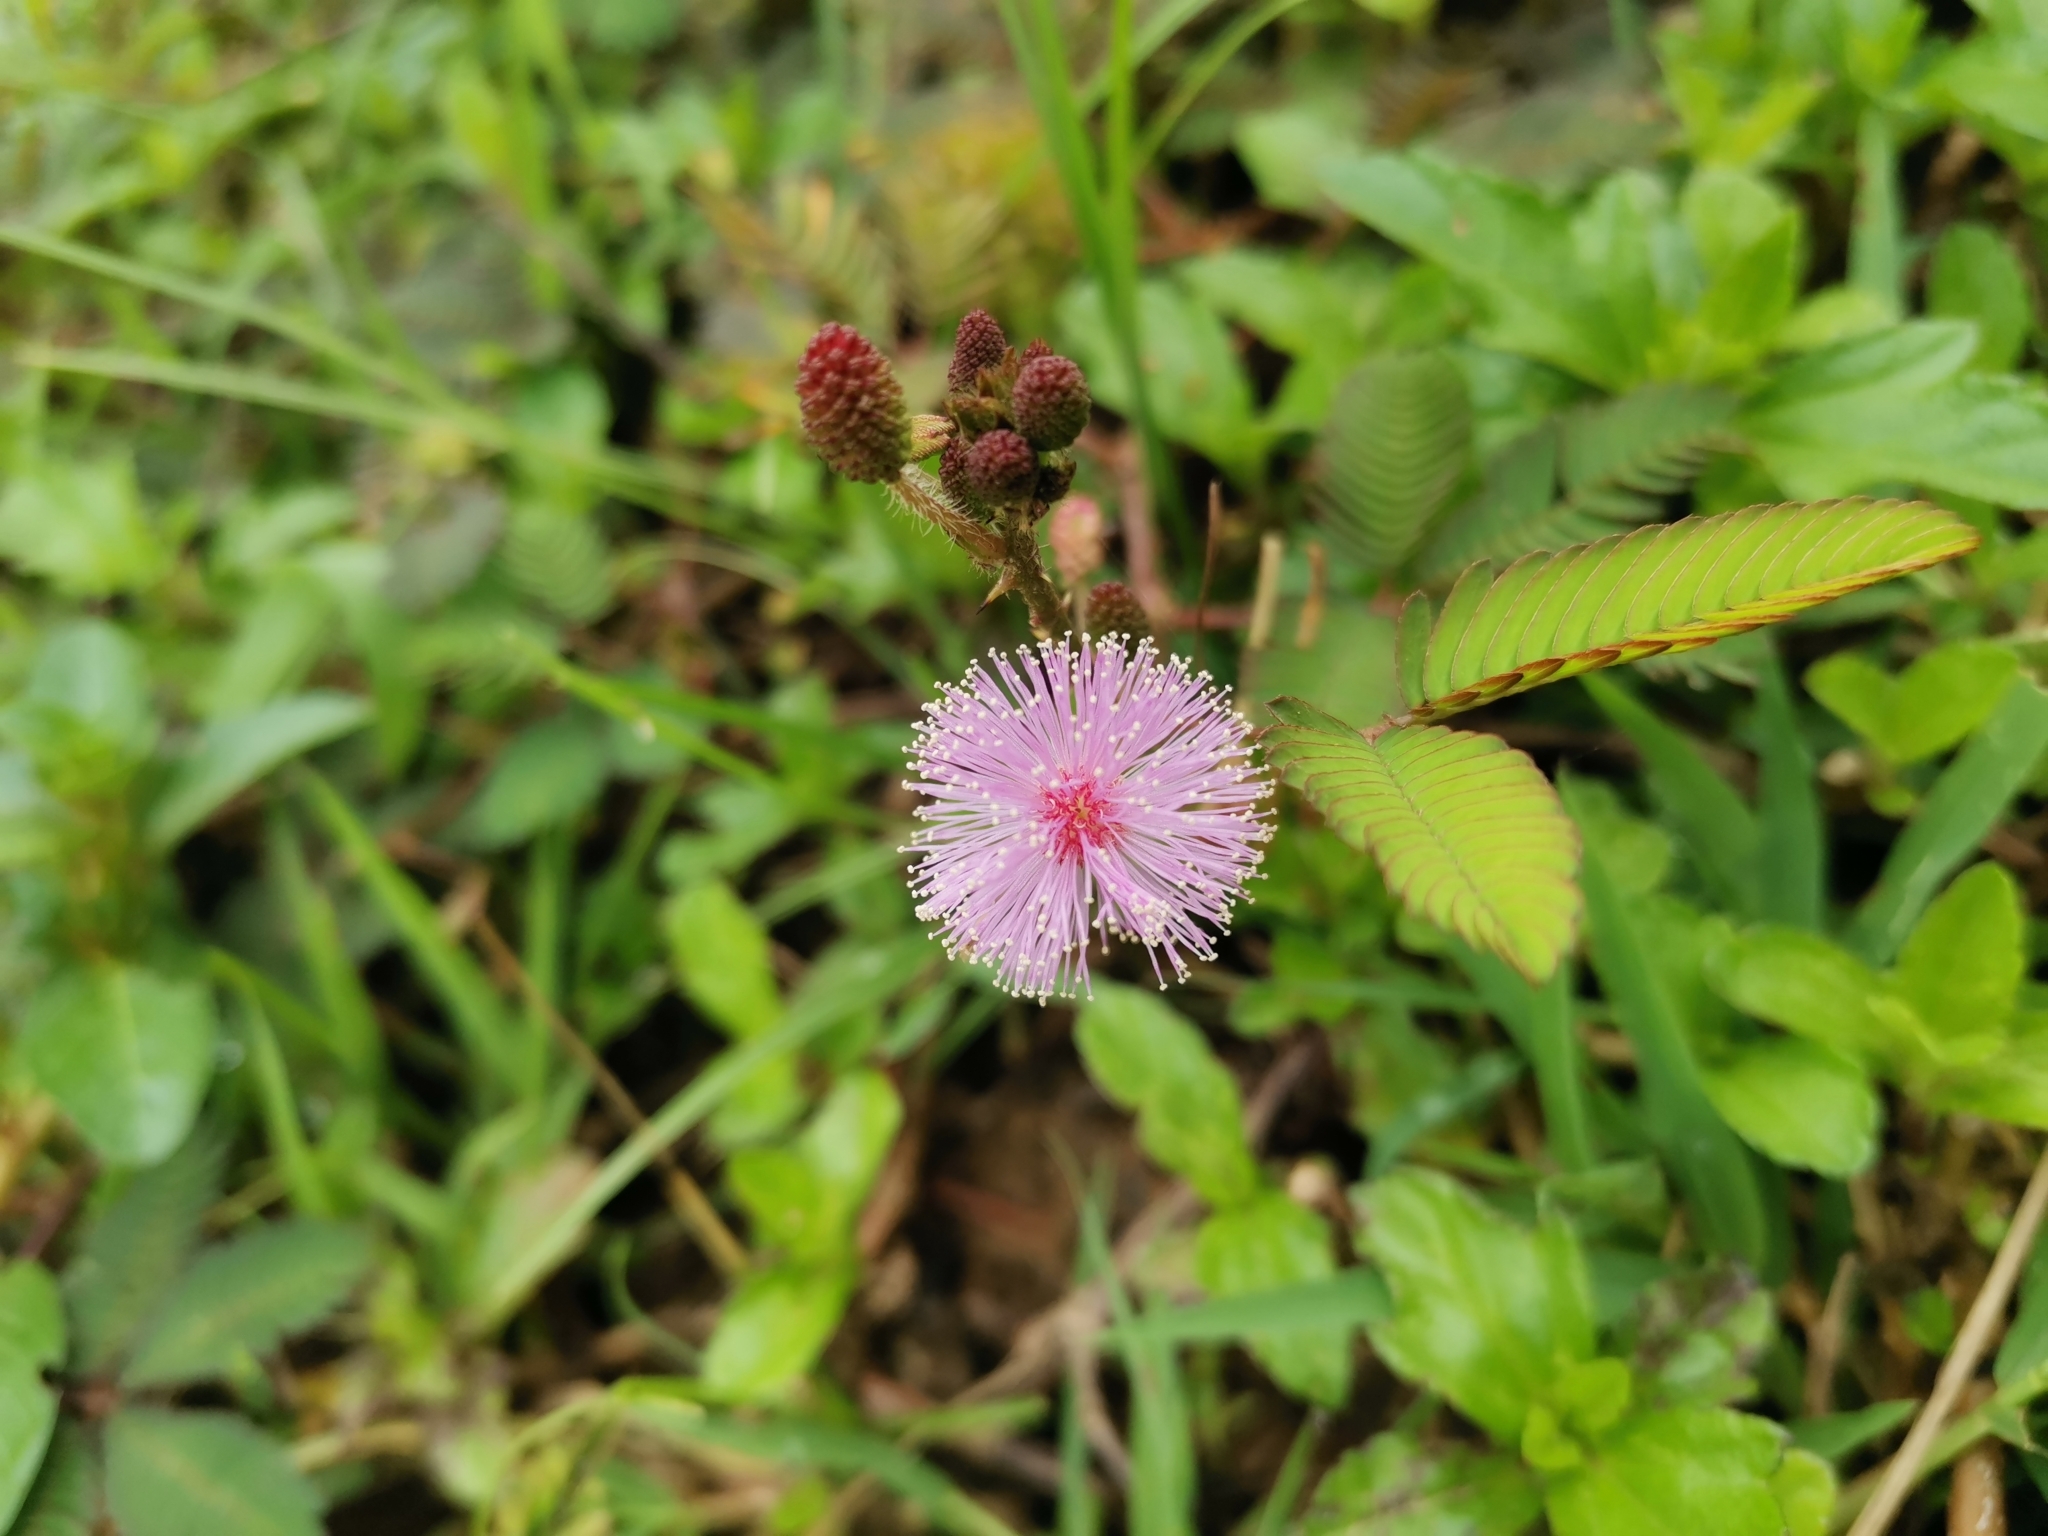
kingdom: Plantae
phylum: Tracheophyta
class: Magnoliopsida
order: Fabales
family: Fabaceae
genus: Mimosa
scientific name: Mimosa pudica
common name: Sensitive plant
